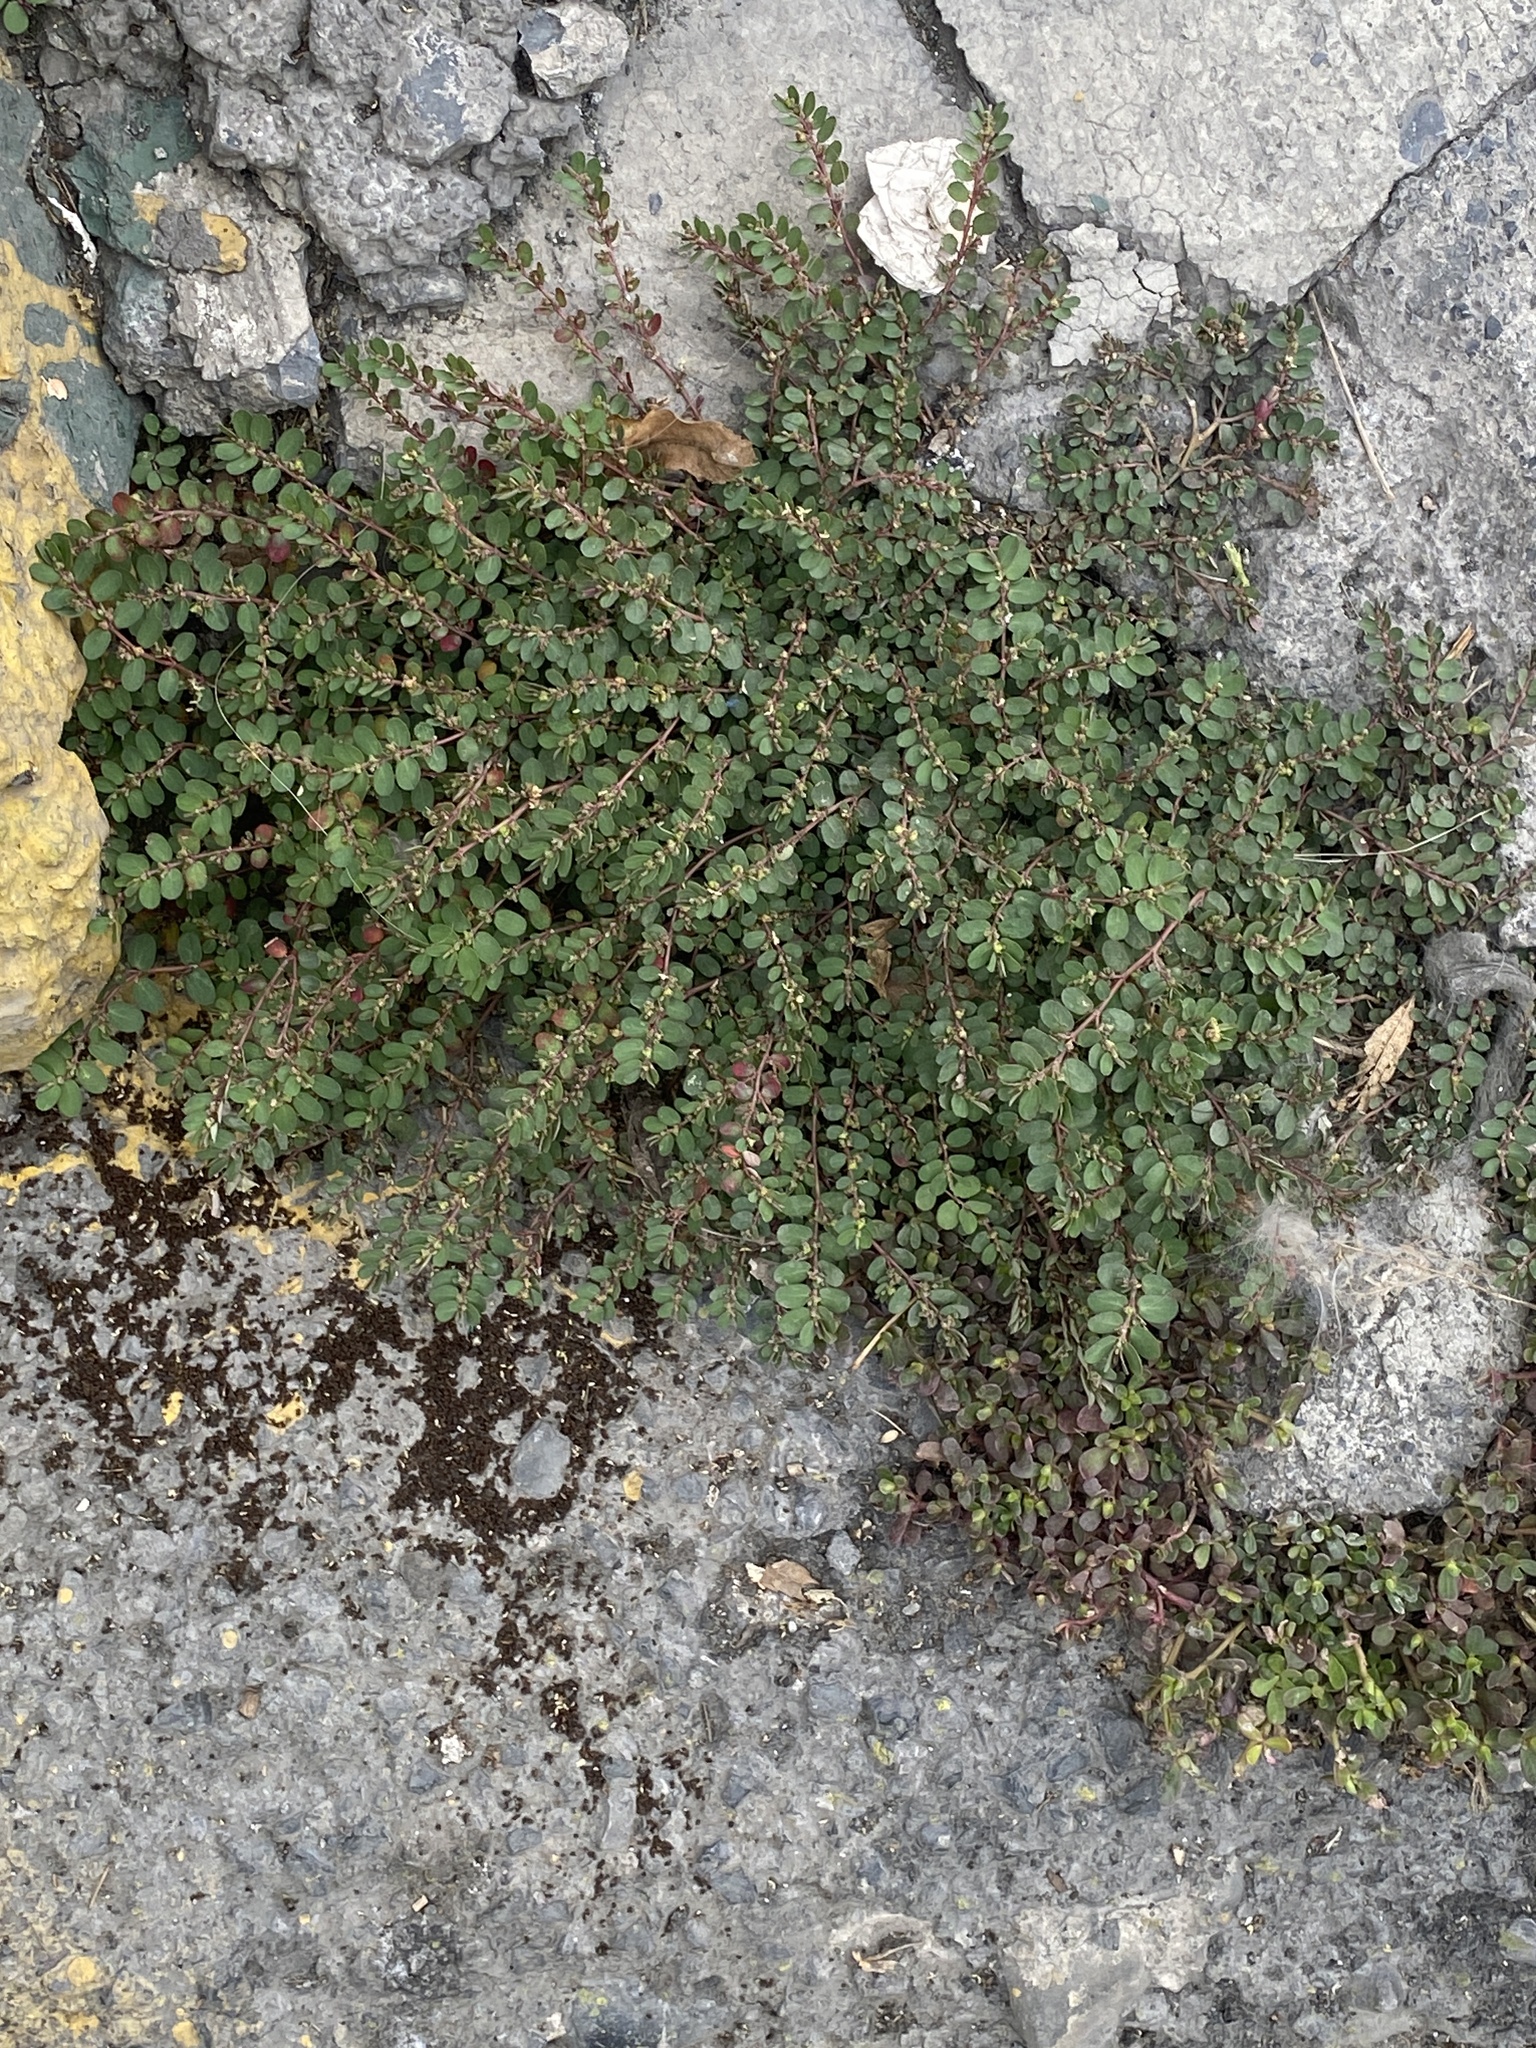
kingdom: Plantae
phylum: Tracheophyta
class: Magnoliopsida
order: Malpighiales
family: Euphorbiaceae
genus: Euphorbia
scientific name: Euphorbia prostrata
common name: Prostrate sandmat
